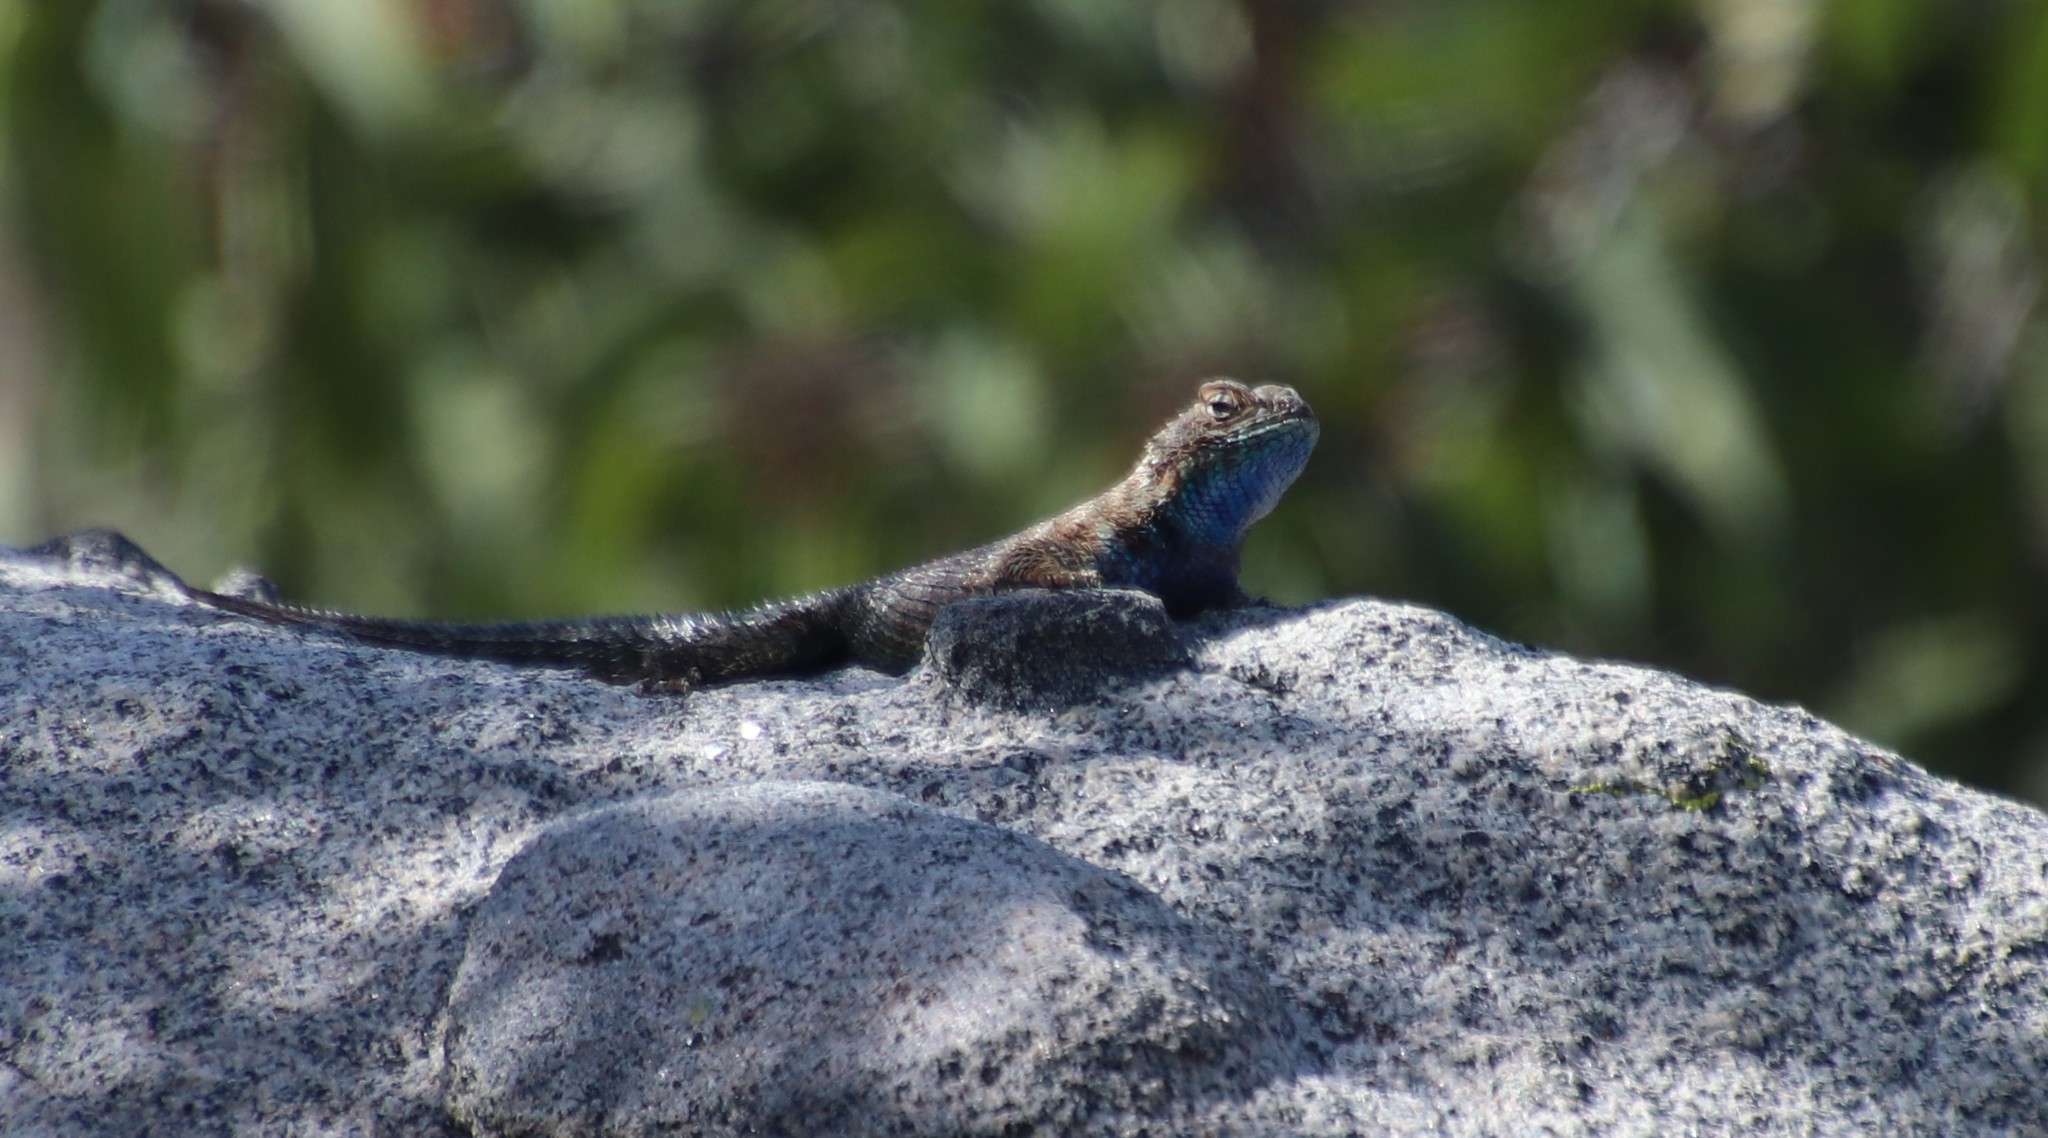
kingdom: Animalia
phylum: Chordata
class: Squamata
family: Phrynosomatidae
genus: Sceloporus
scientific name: Sceloporus orcutti
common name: Granite spiny lizard
